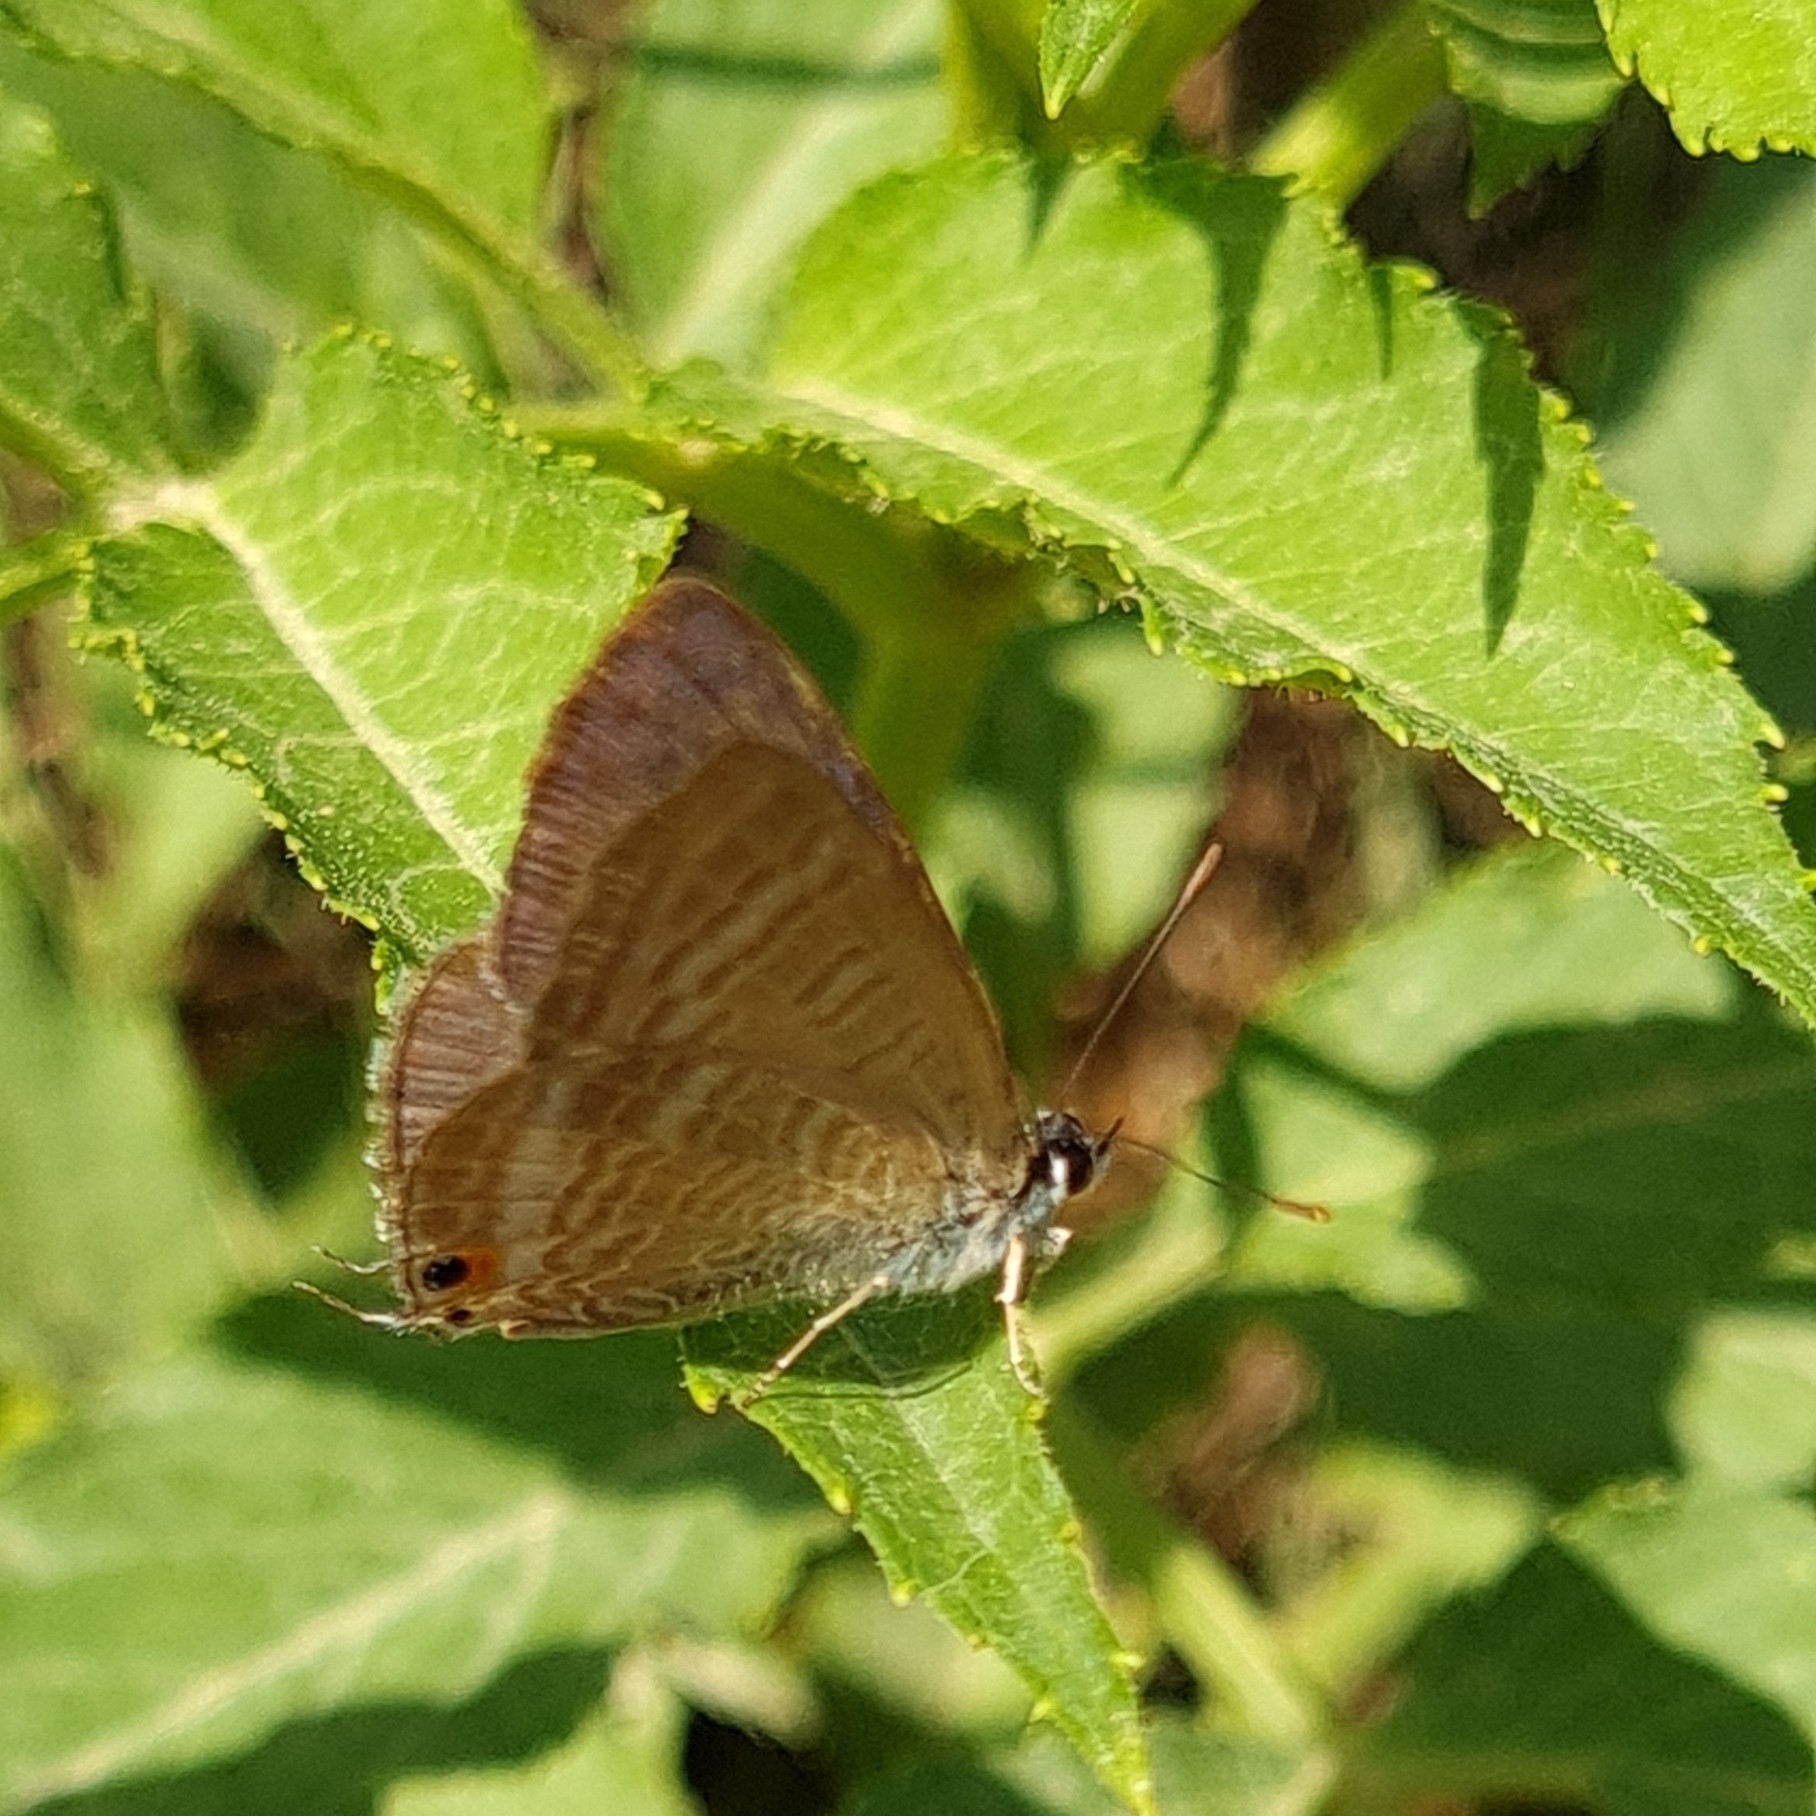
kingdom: Animalia
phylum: Arthropoda
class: Insecta
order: Lepidoptera
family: Lycaenidae
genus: Lampides
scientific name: Lampides boeticus
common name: Long-tailed blue
